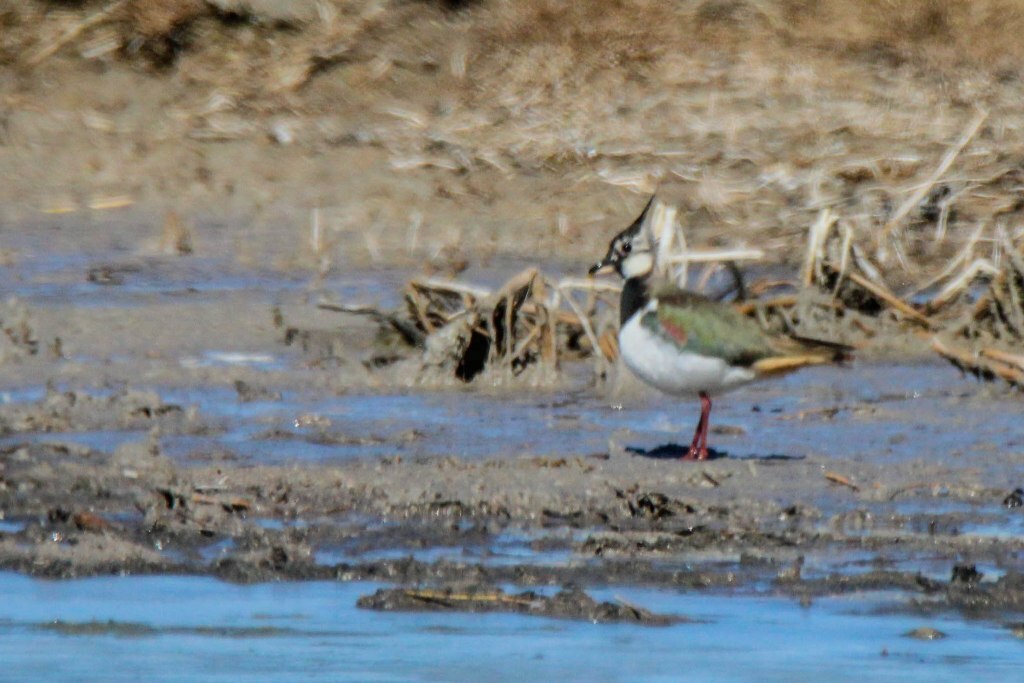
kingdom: Animalia
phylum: Chordata
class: Aves
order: Charadriiformes
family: Charadriidae
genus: Vanellus
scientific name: Vanellus vanellus
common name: Northern lapwing
